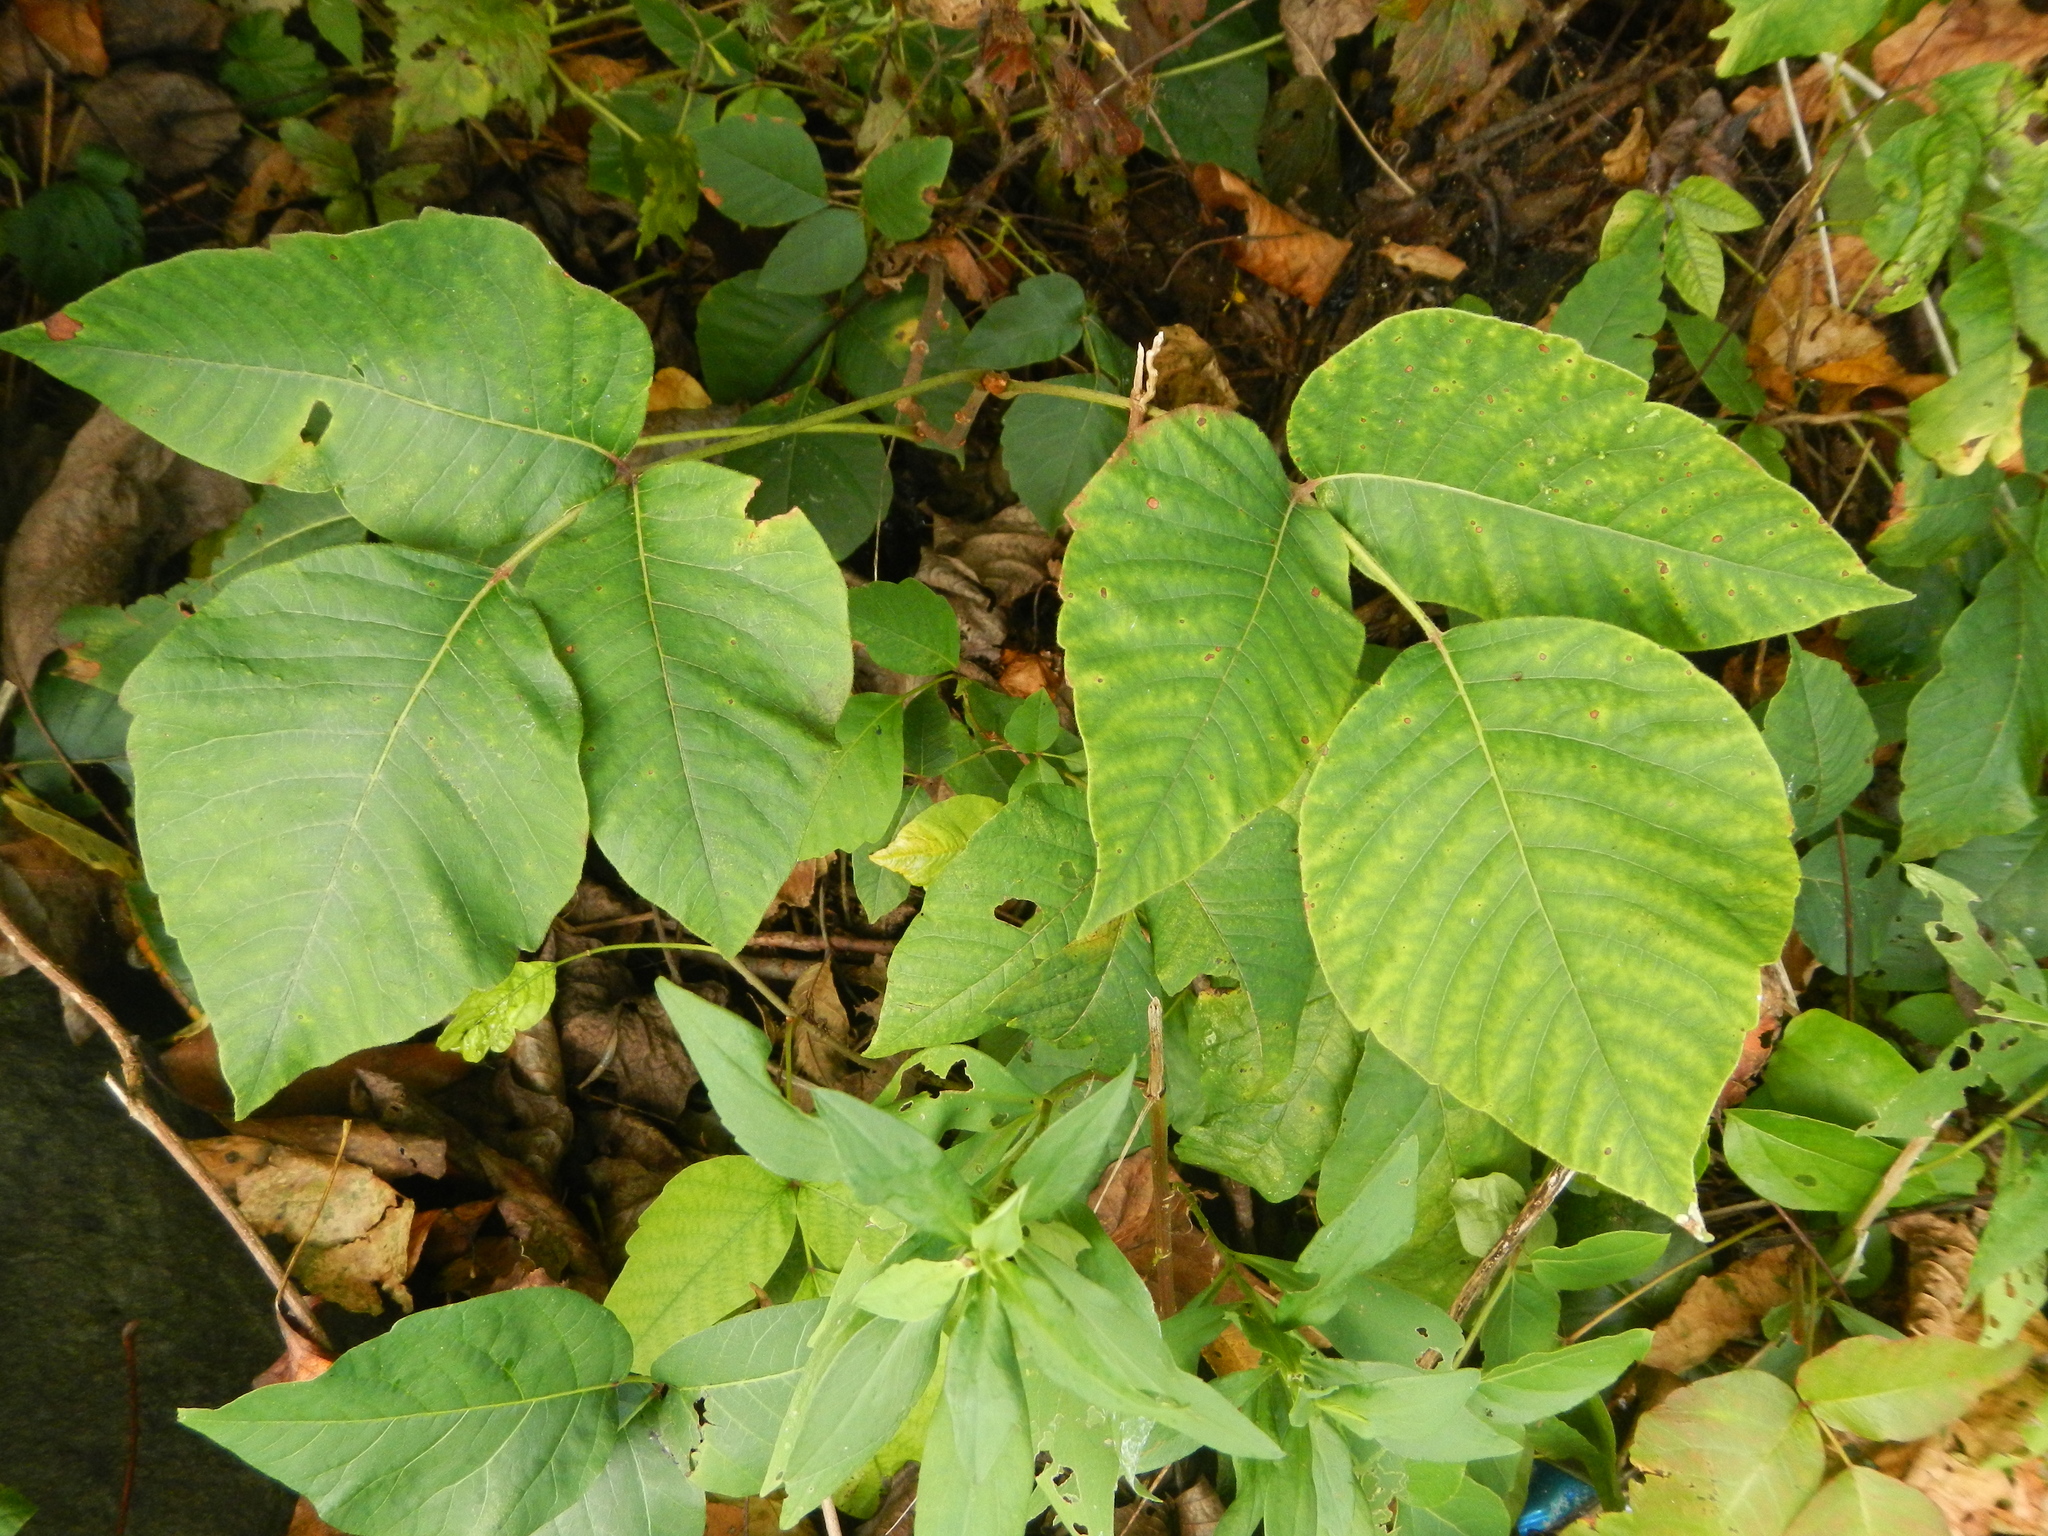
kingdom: Plantae
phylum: Tracheophyta
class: Magnoliopsida
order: Sapindales
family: Anacardiaceae
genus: Toxicodendron
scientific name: Toxicodendron radicans
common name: Poison ivy
